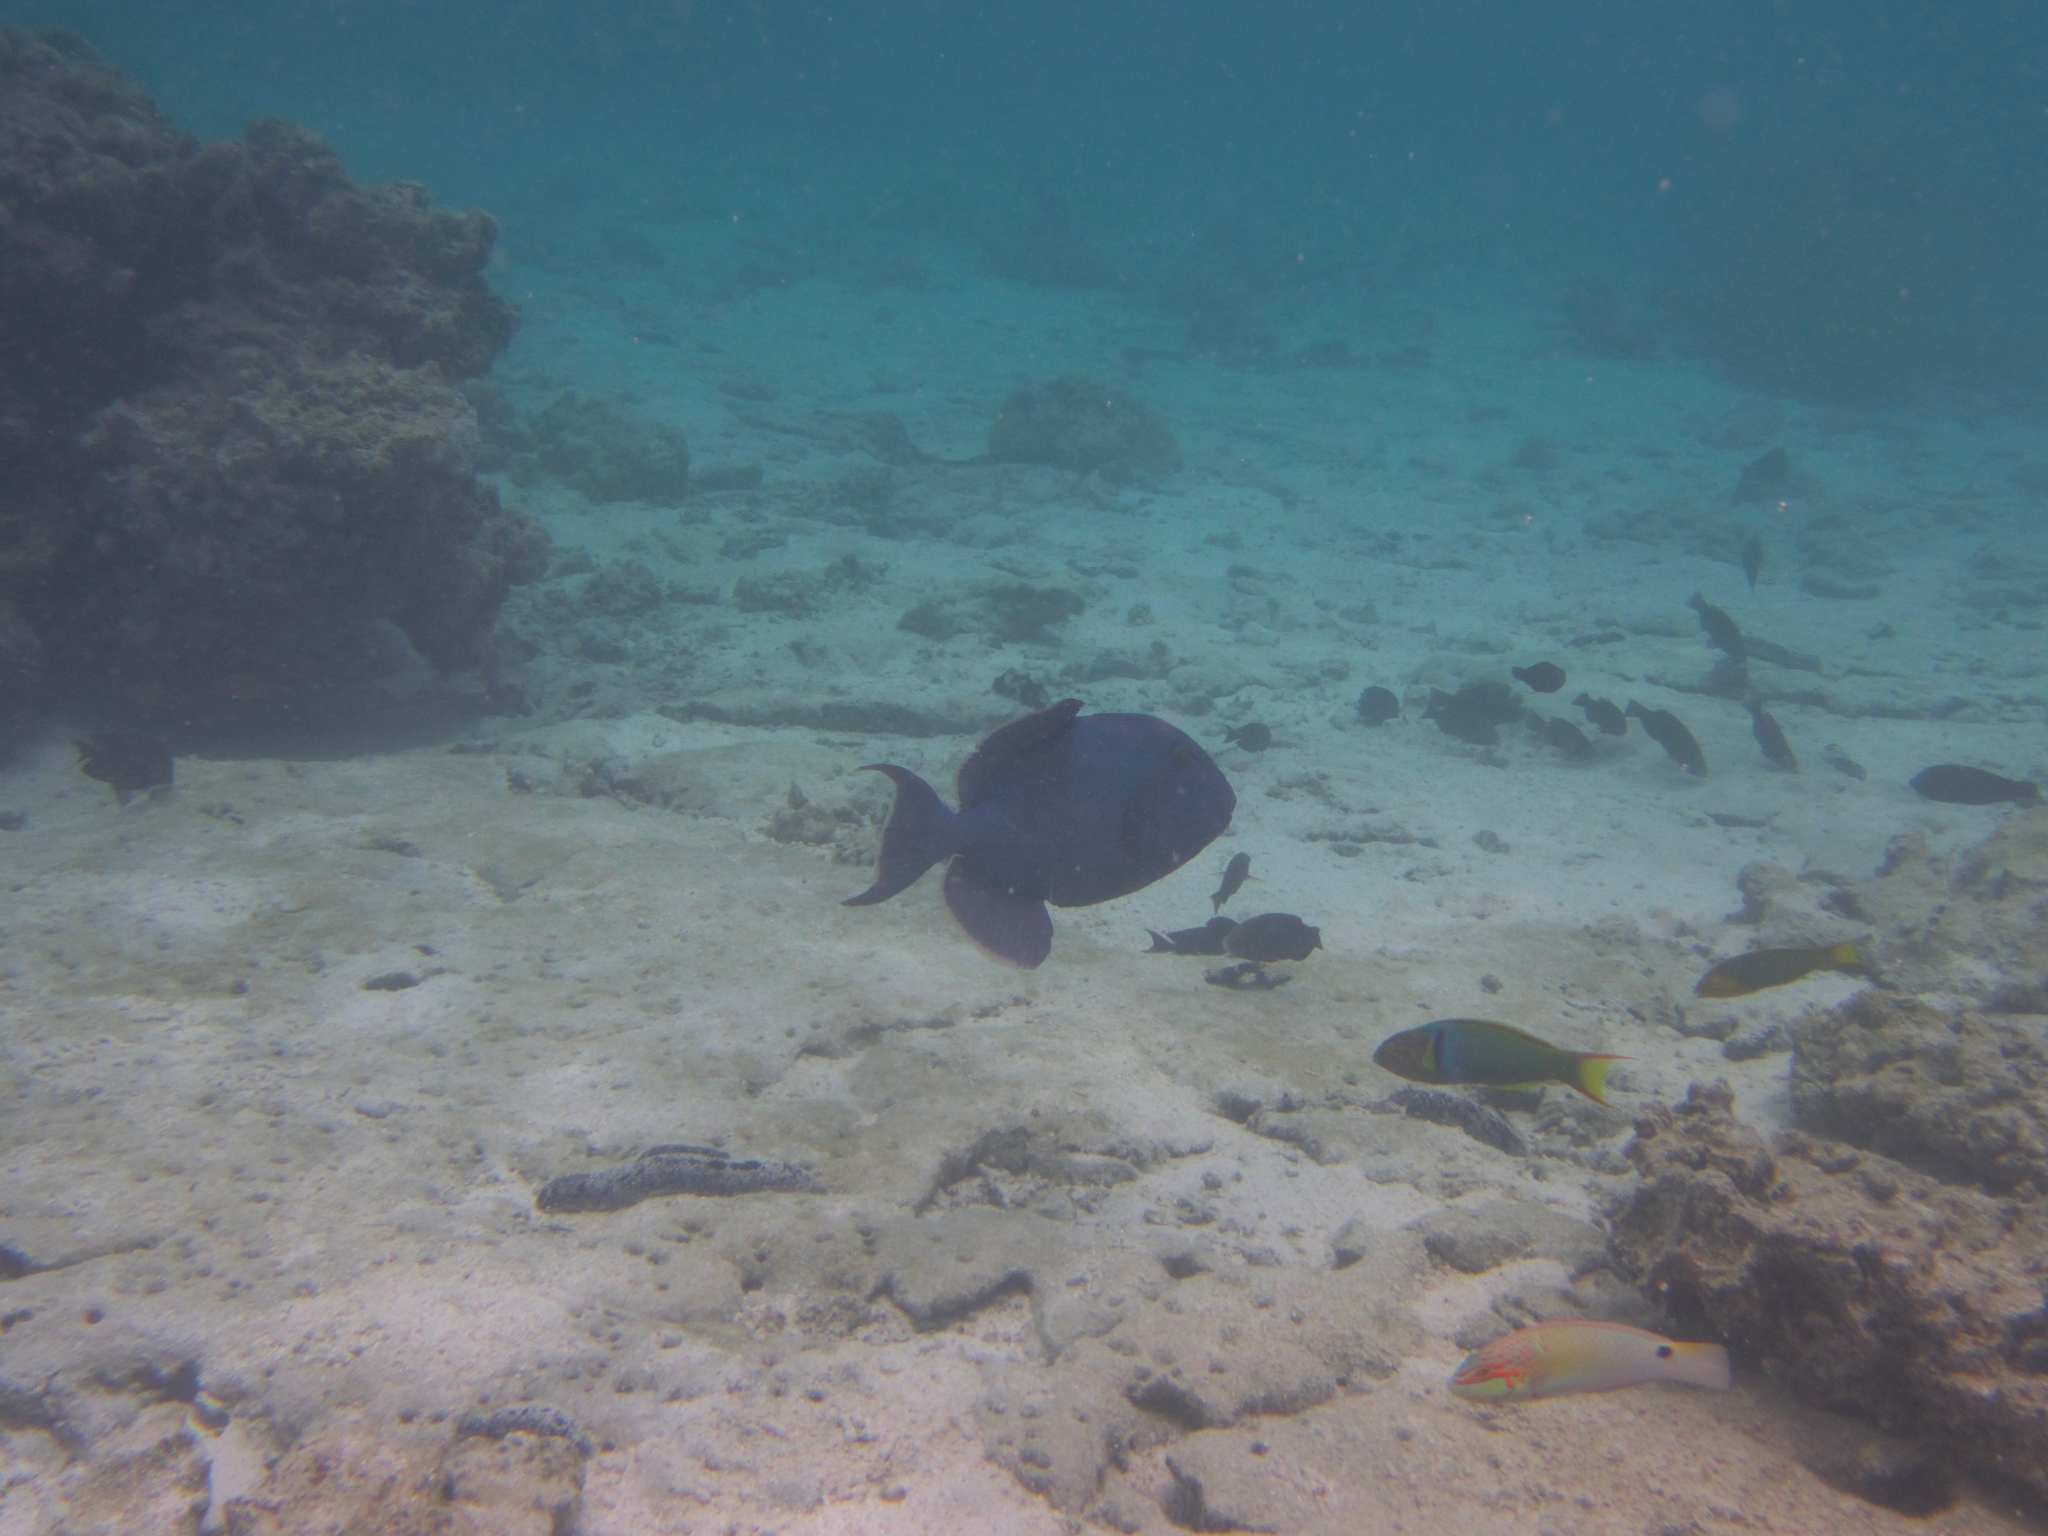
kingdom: Animalia
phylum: Chordata
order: Tetraodontiformes
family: Balistidae
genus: Pseudobalistes
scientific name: Pseudobalistes fuscus
